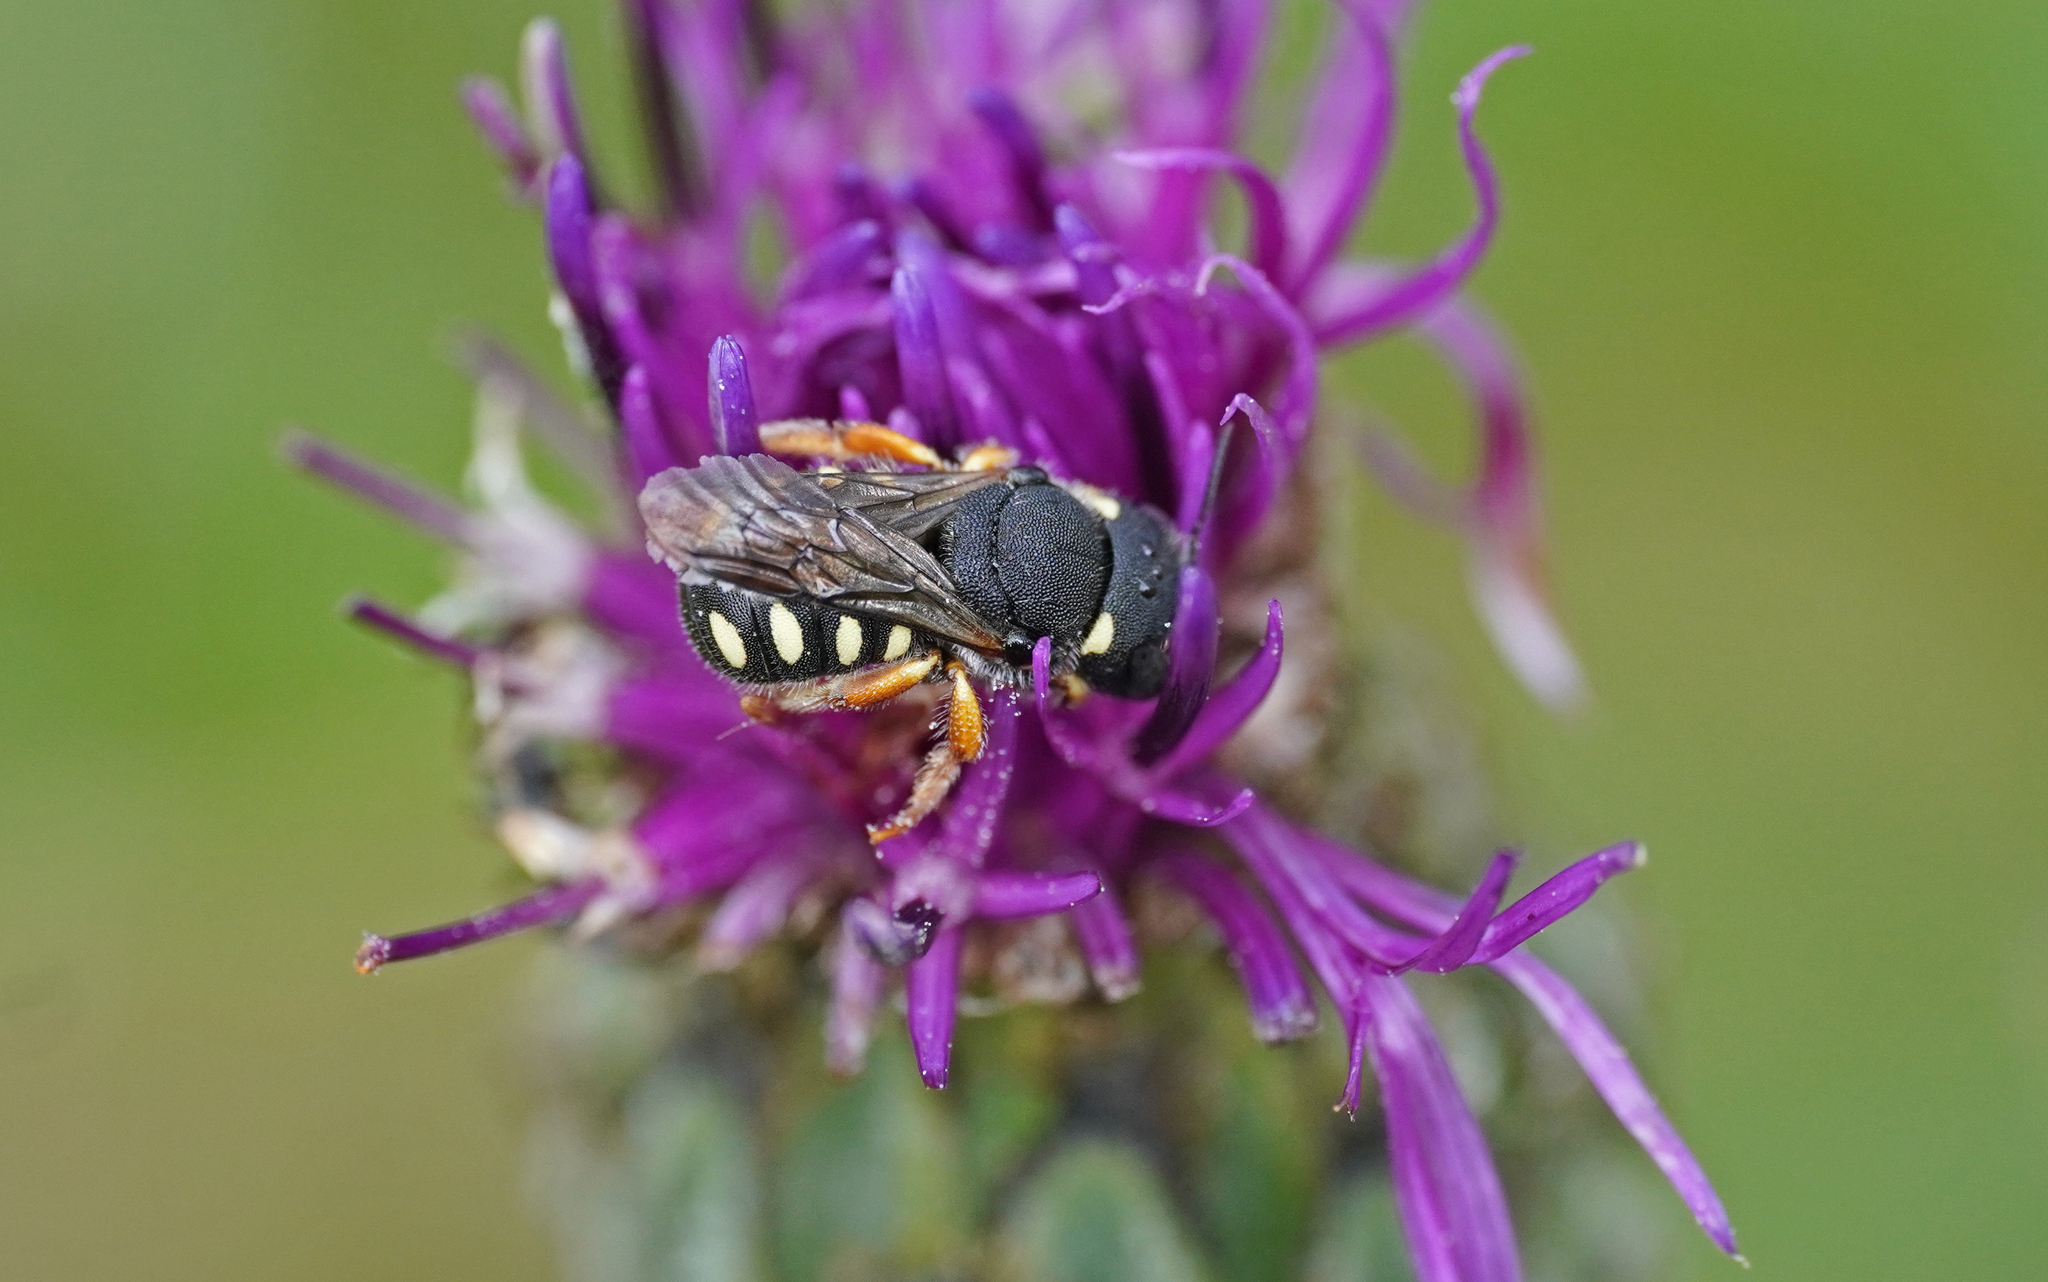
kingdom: Animalia
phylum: Arthropoda
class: Insecta
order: Hymenoptera
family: Megachilidae
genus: Pseudoanthidium
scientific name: Pseudoanthidium nanum
